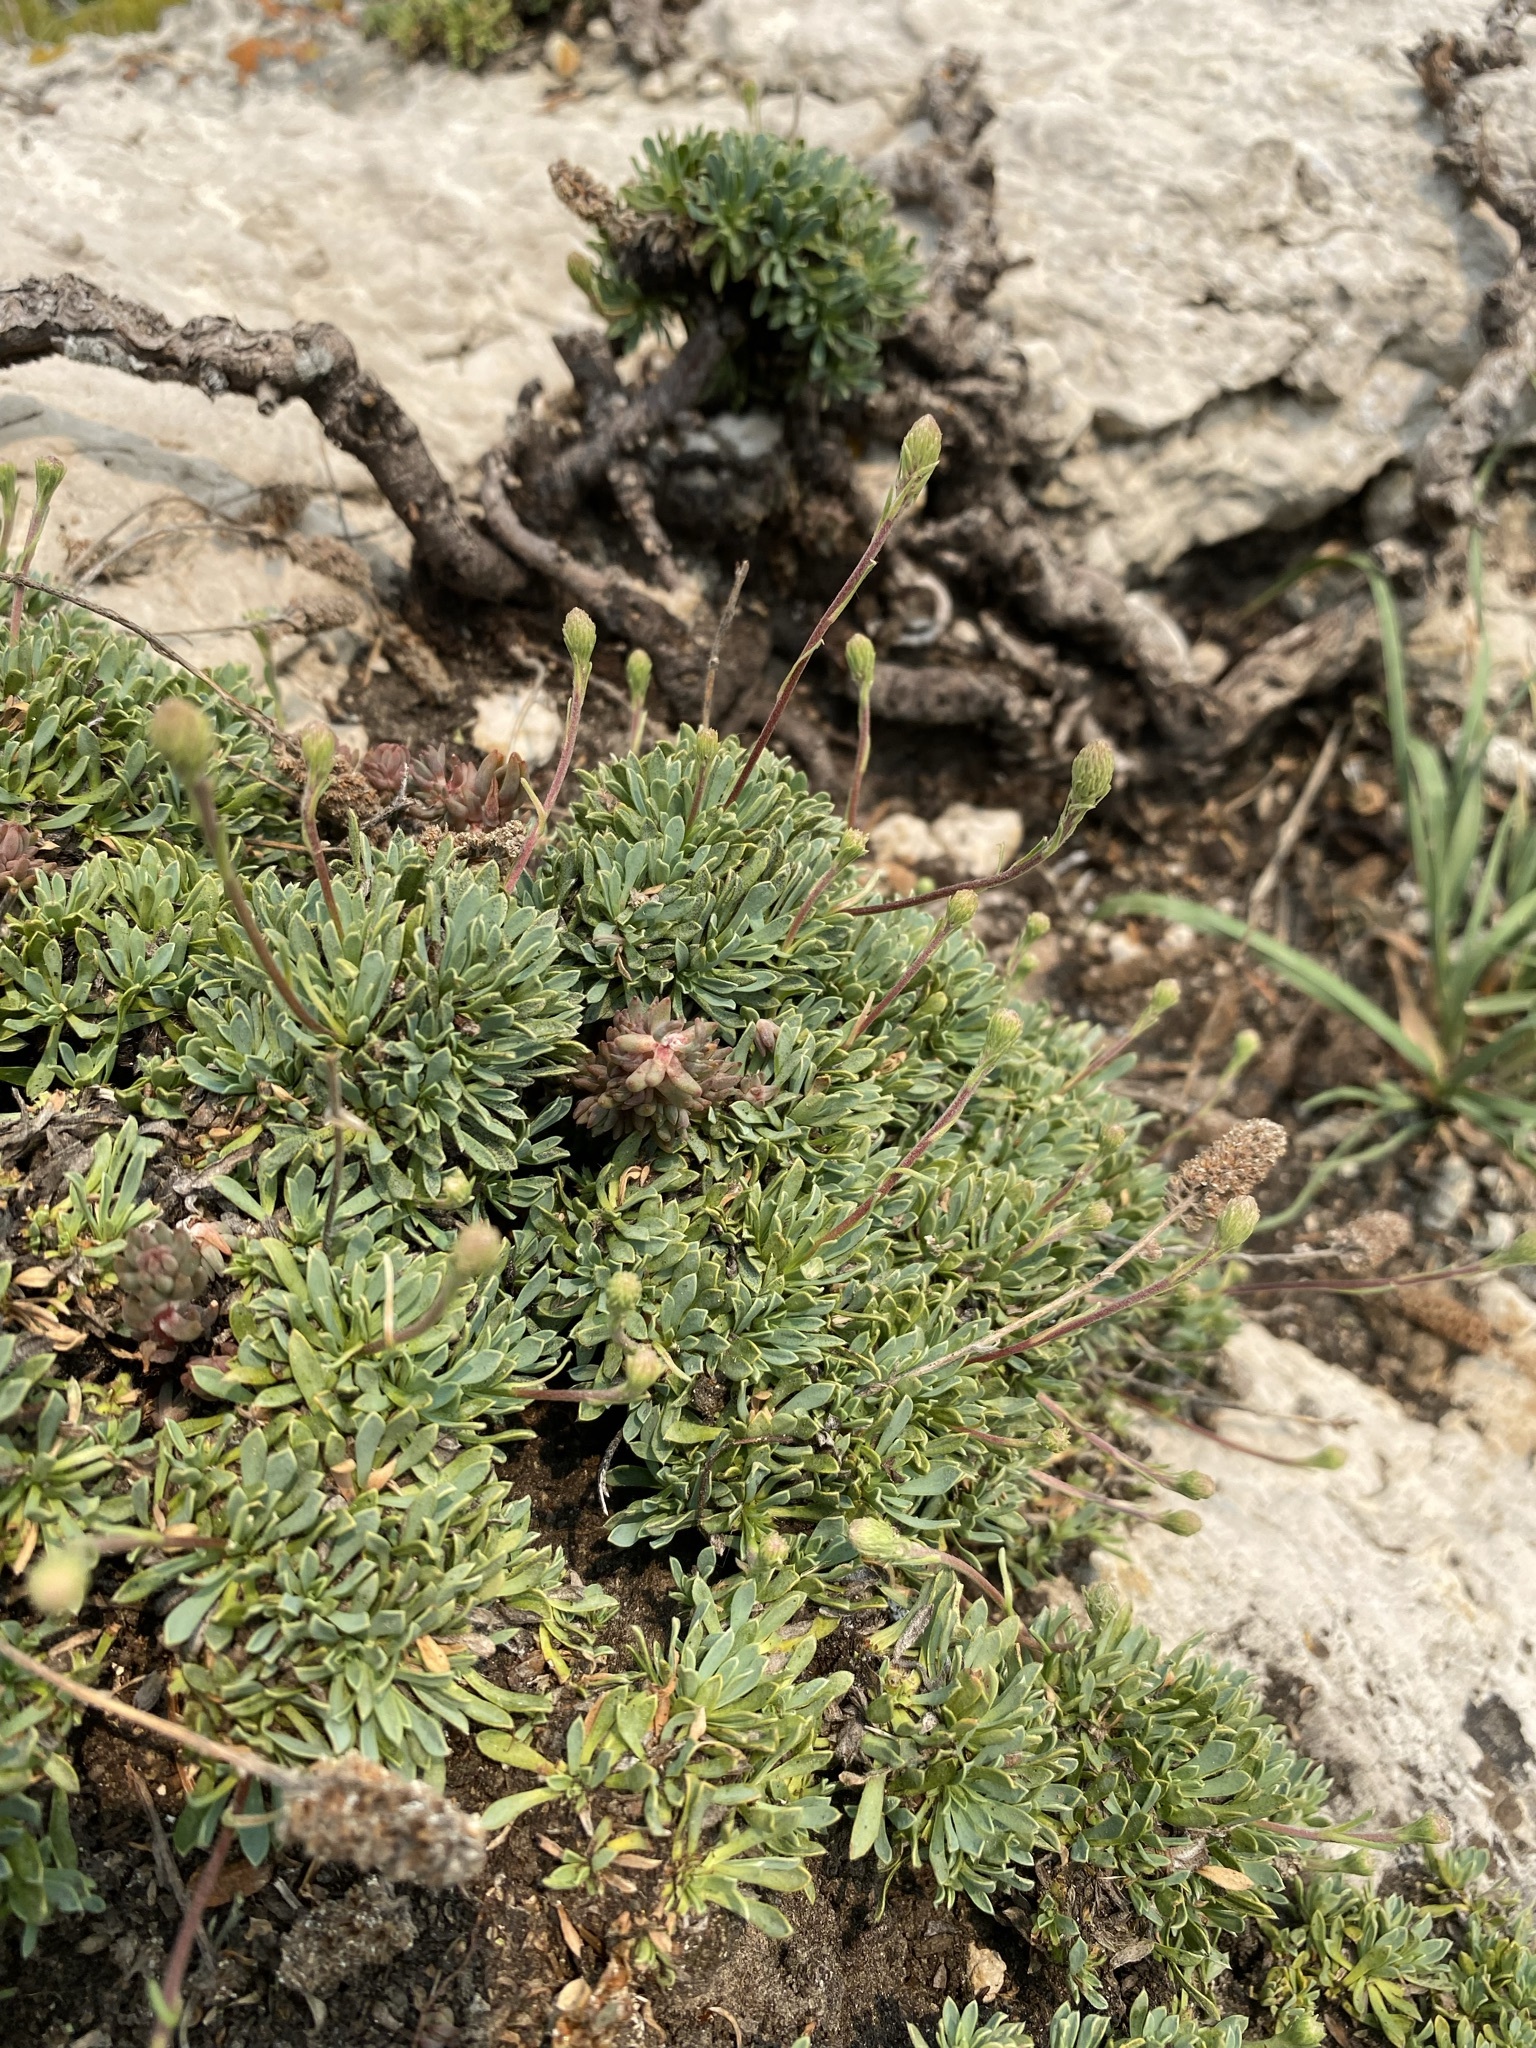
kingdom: Plantae
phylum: Tracheophyta
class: Magnoliopsida
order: Rosales
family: Rosaceae
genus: Petrophytum
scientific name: Petrophytum caespitosum
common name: Mat rockspirea
